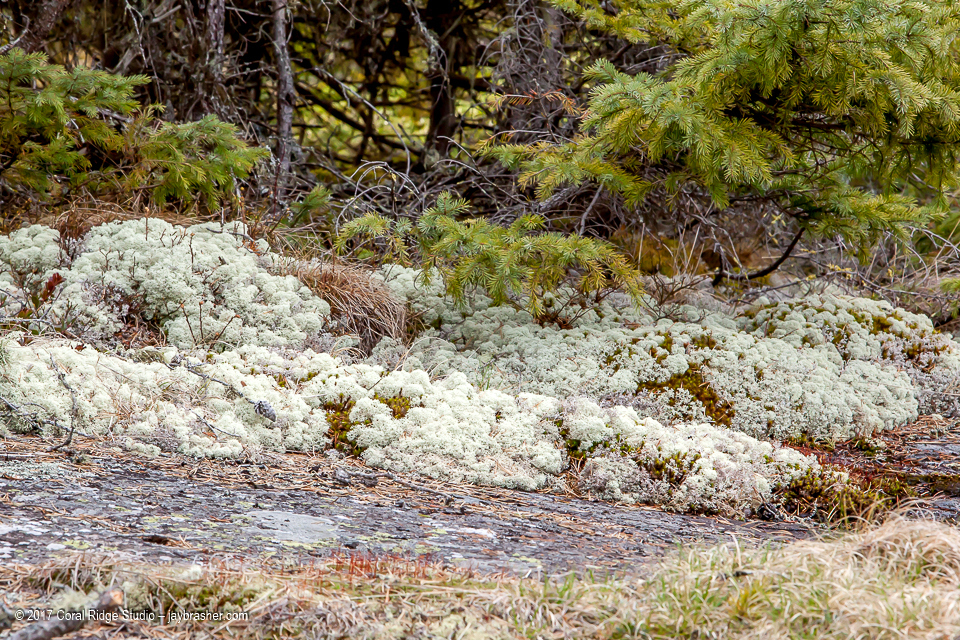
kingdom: Fungi
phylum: Ascomycota
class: Lecanoromycetes
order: Lecanorales
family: Cladoniaceae
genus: Cladonia
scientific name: Cladonia stellaris
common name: Star-tipped reindeer lichen
